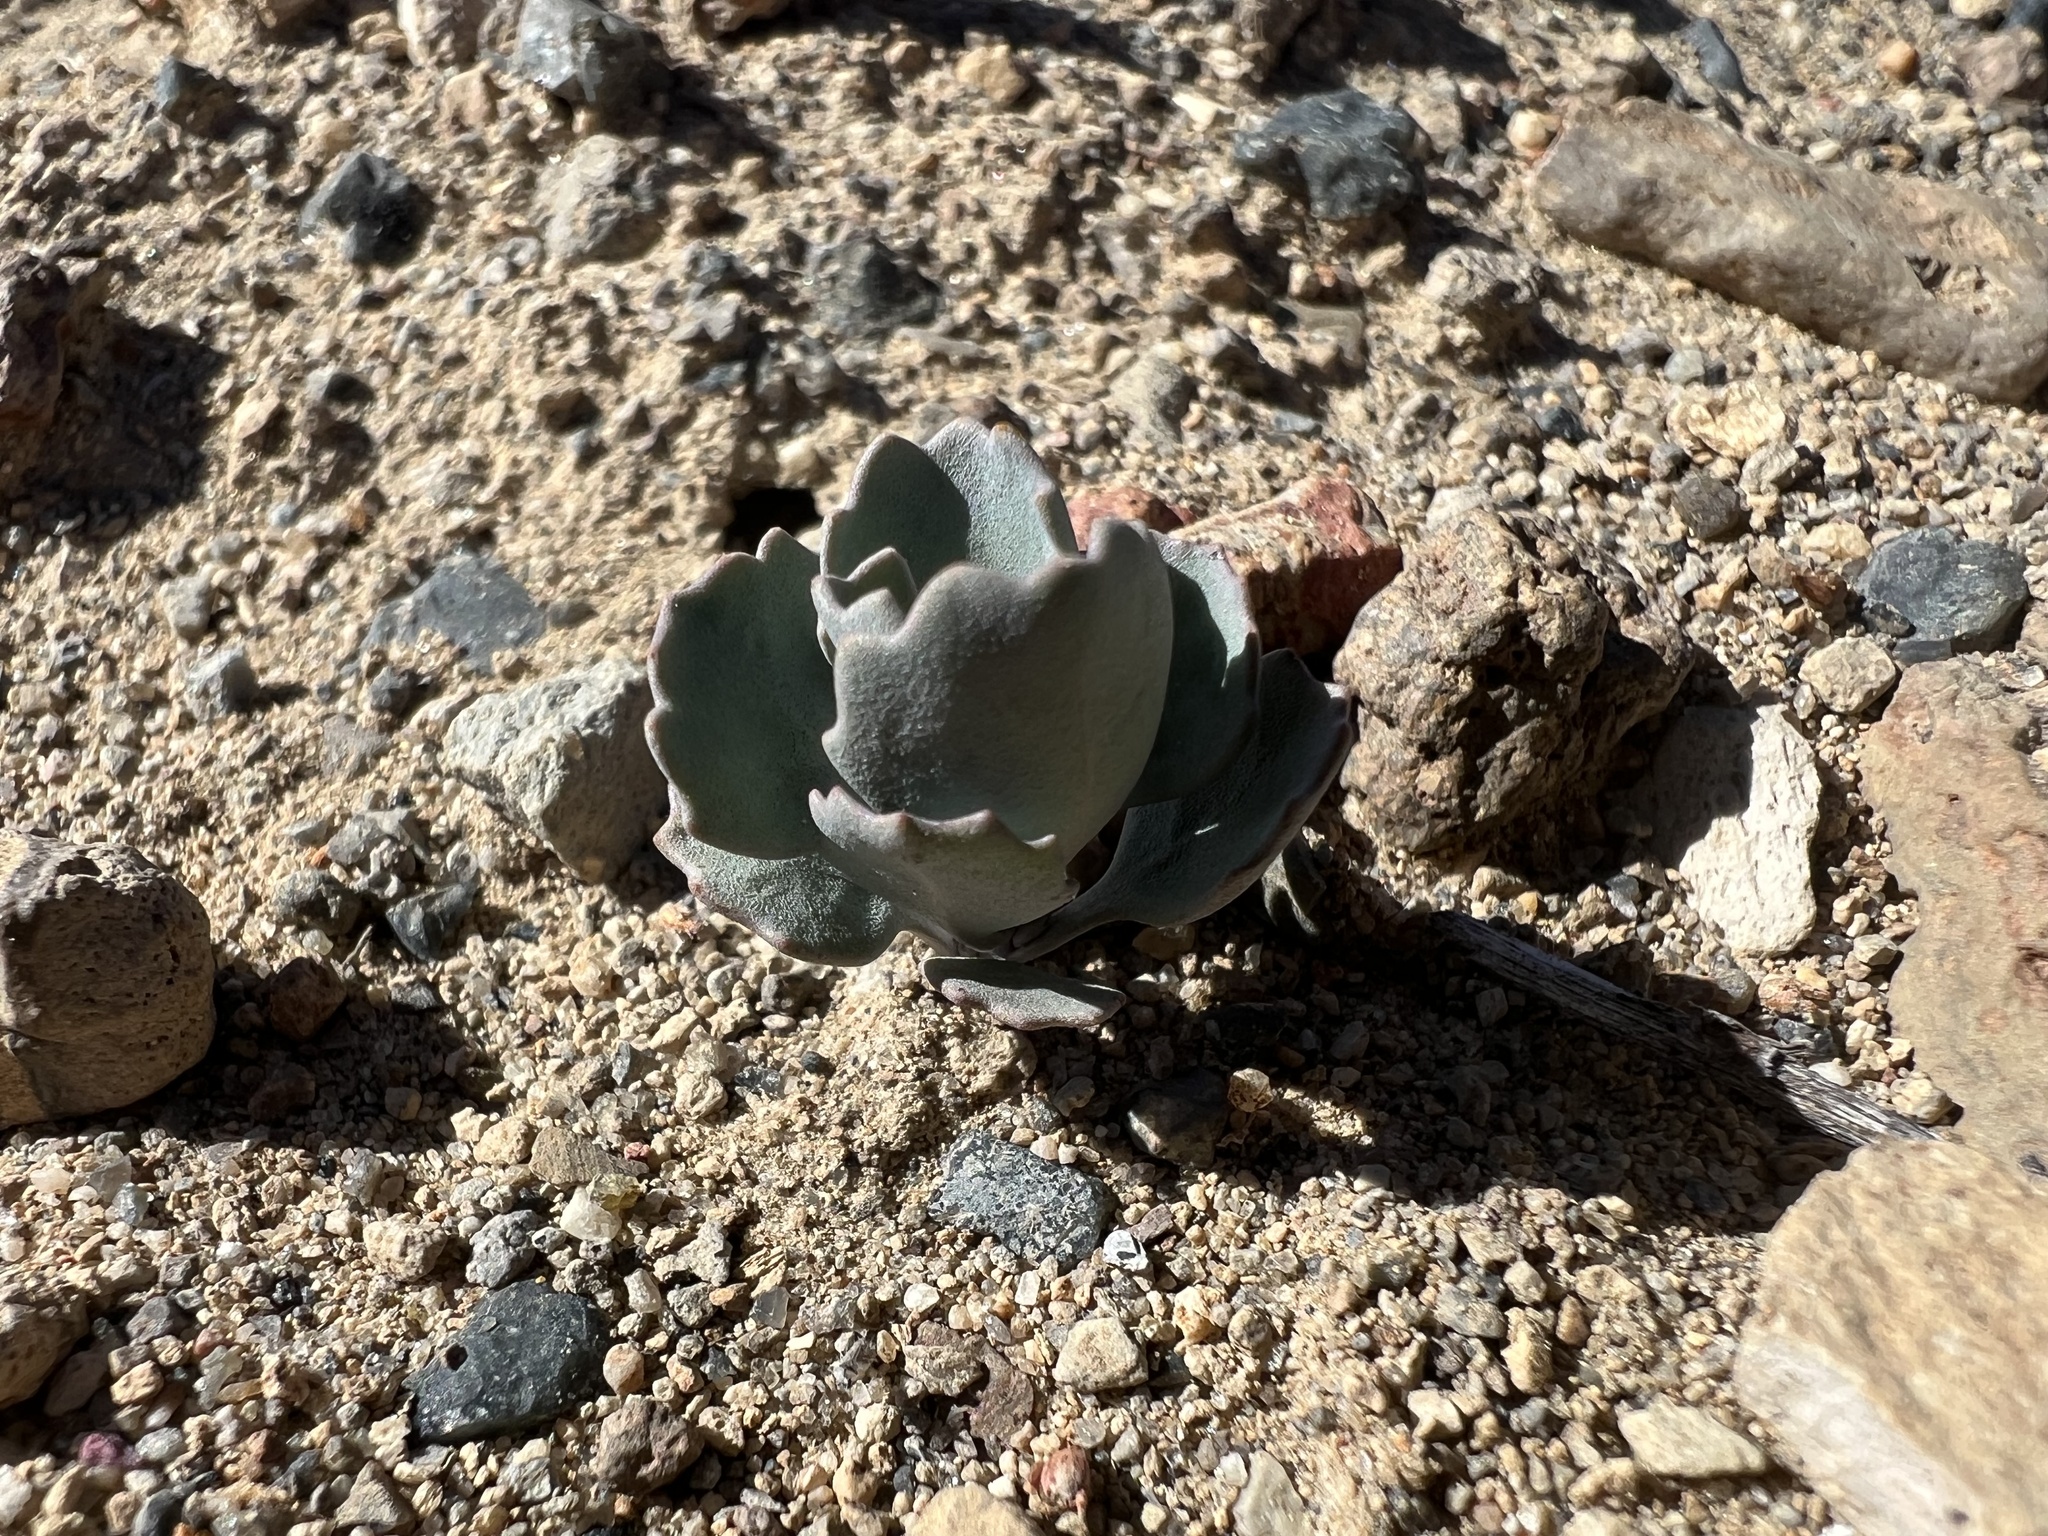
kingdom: Plantae
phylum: Tracheophyta
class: Magnoliopsida
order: Brassicales
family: Brassicaceae
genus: Streptanthus
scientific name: Streptanthus tortuosus
